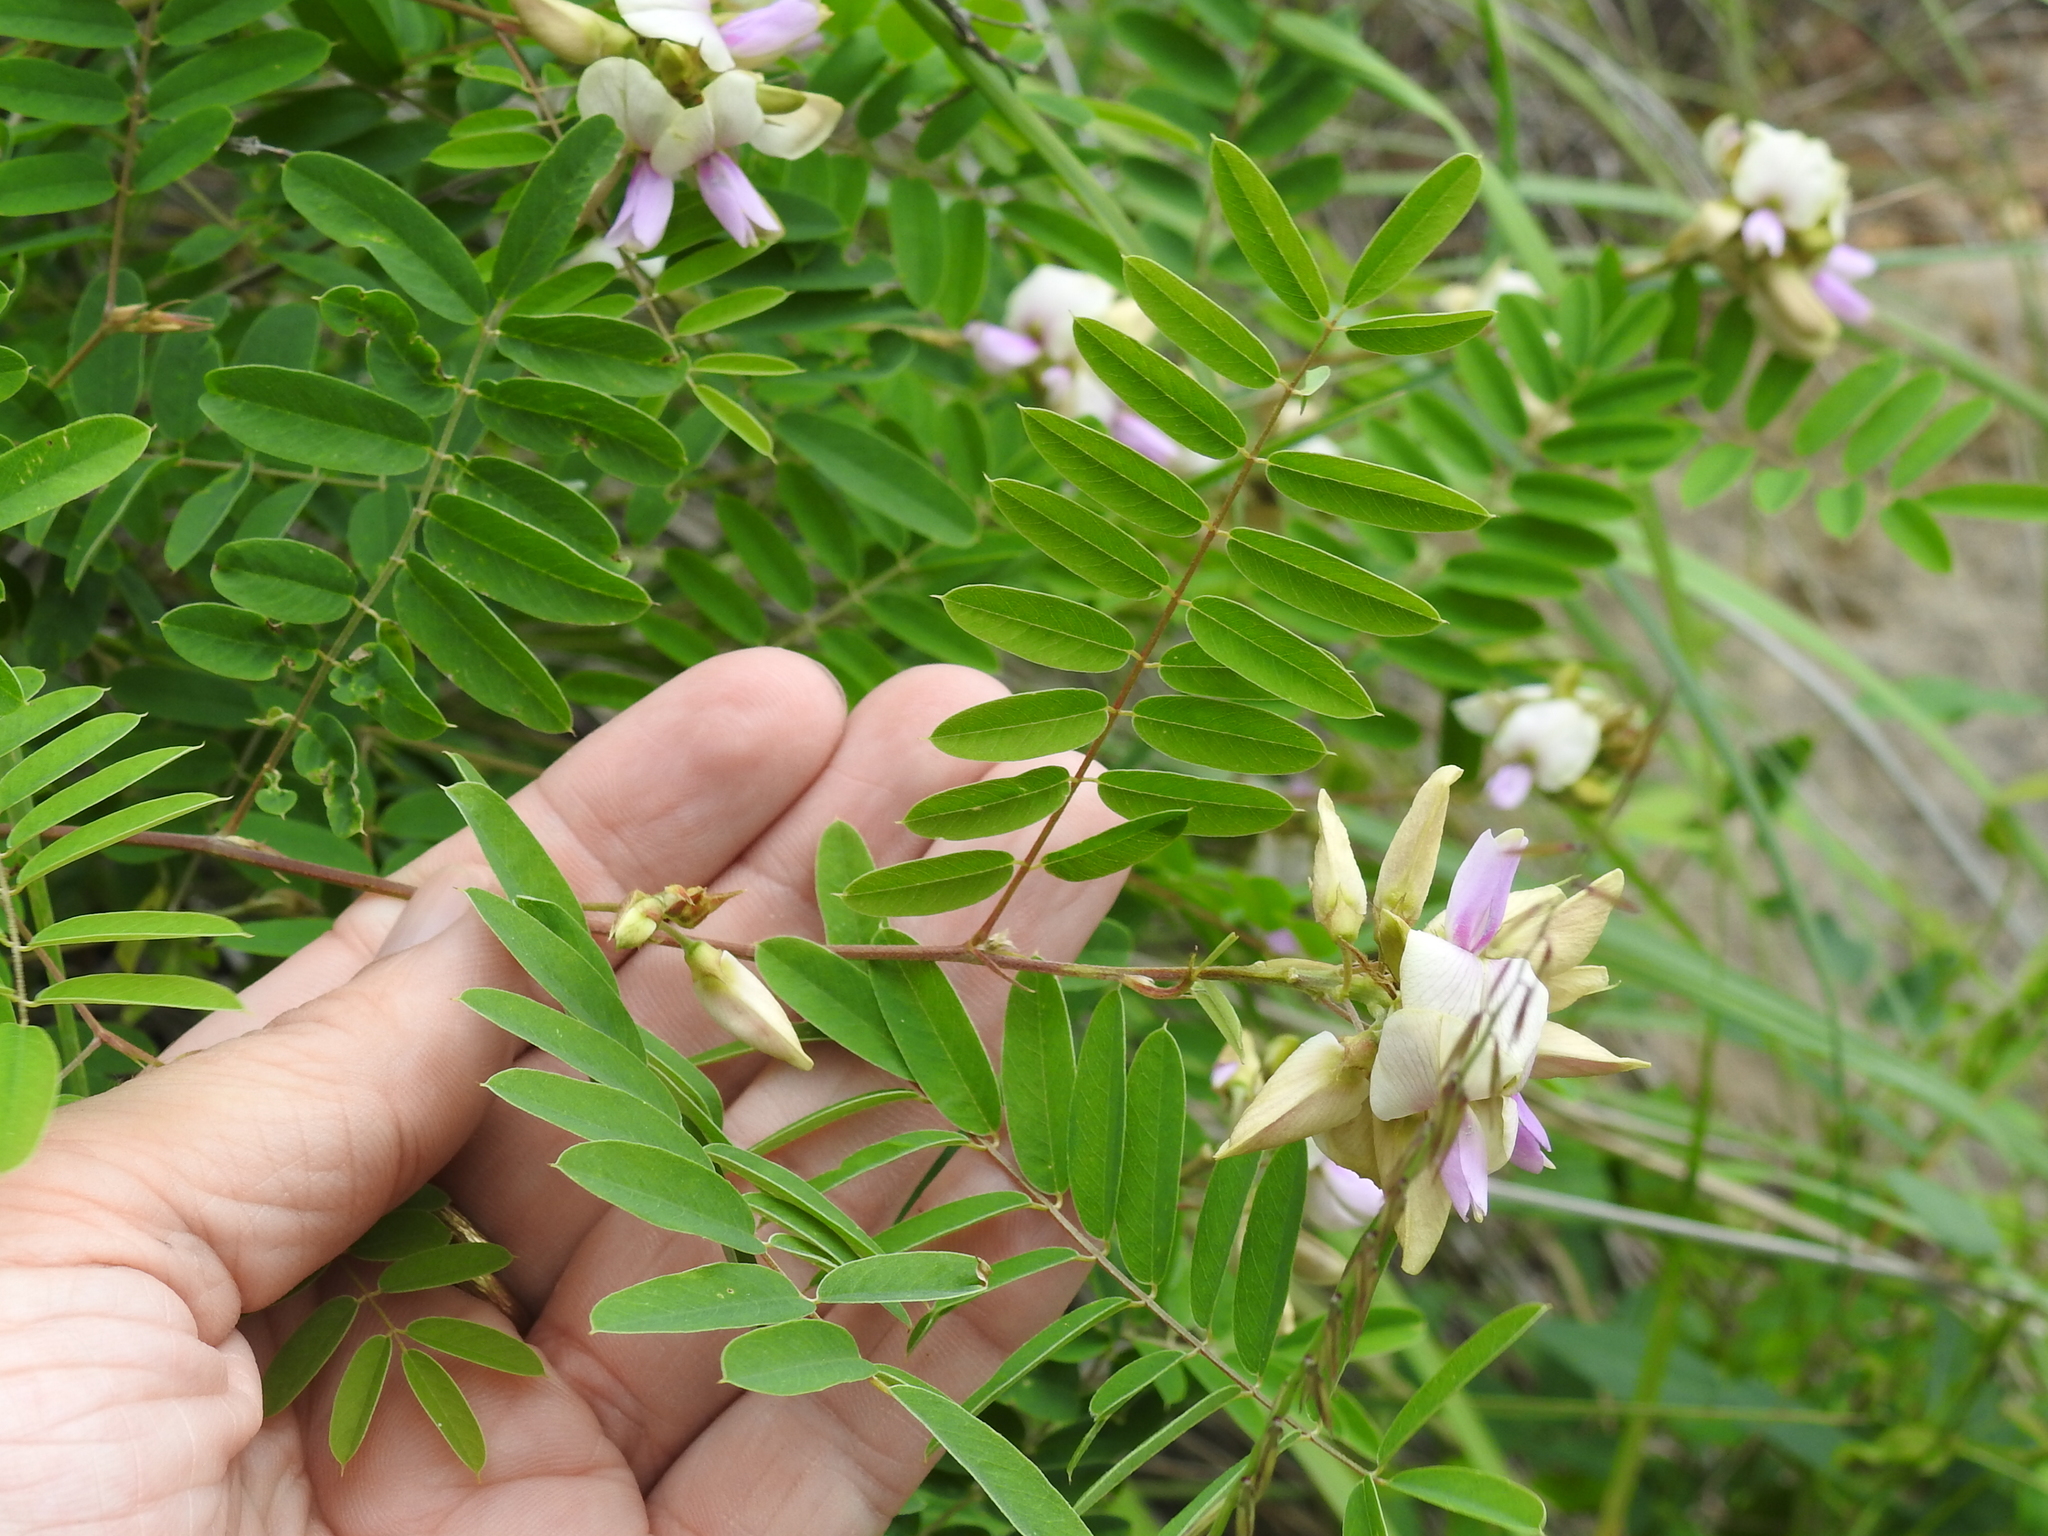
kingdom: Plantae
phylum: Tracheophyta
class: Magnoliopsida
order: Fabales
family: Fabaceae
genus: Tephrosia
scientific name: Tephrosia thurberi
